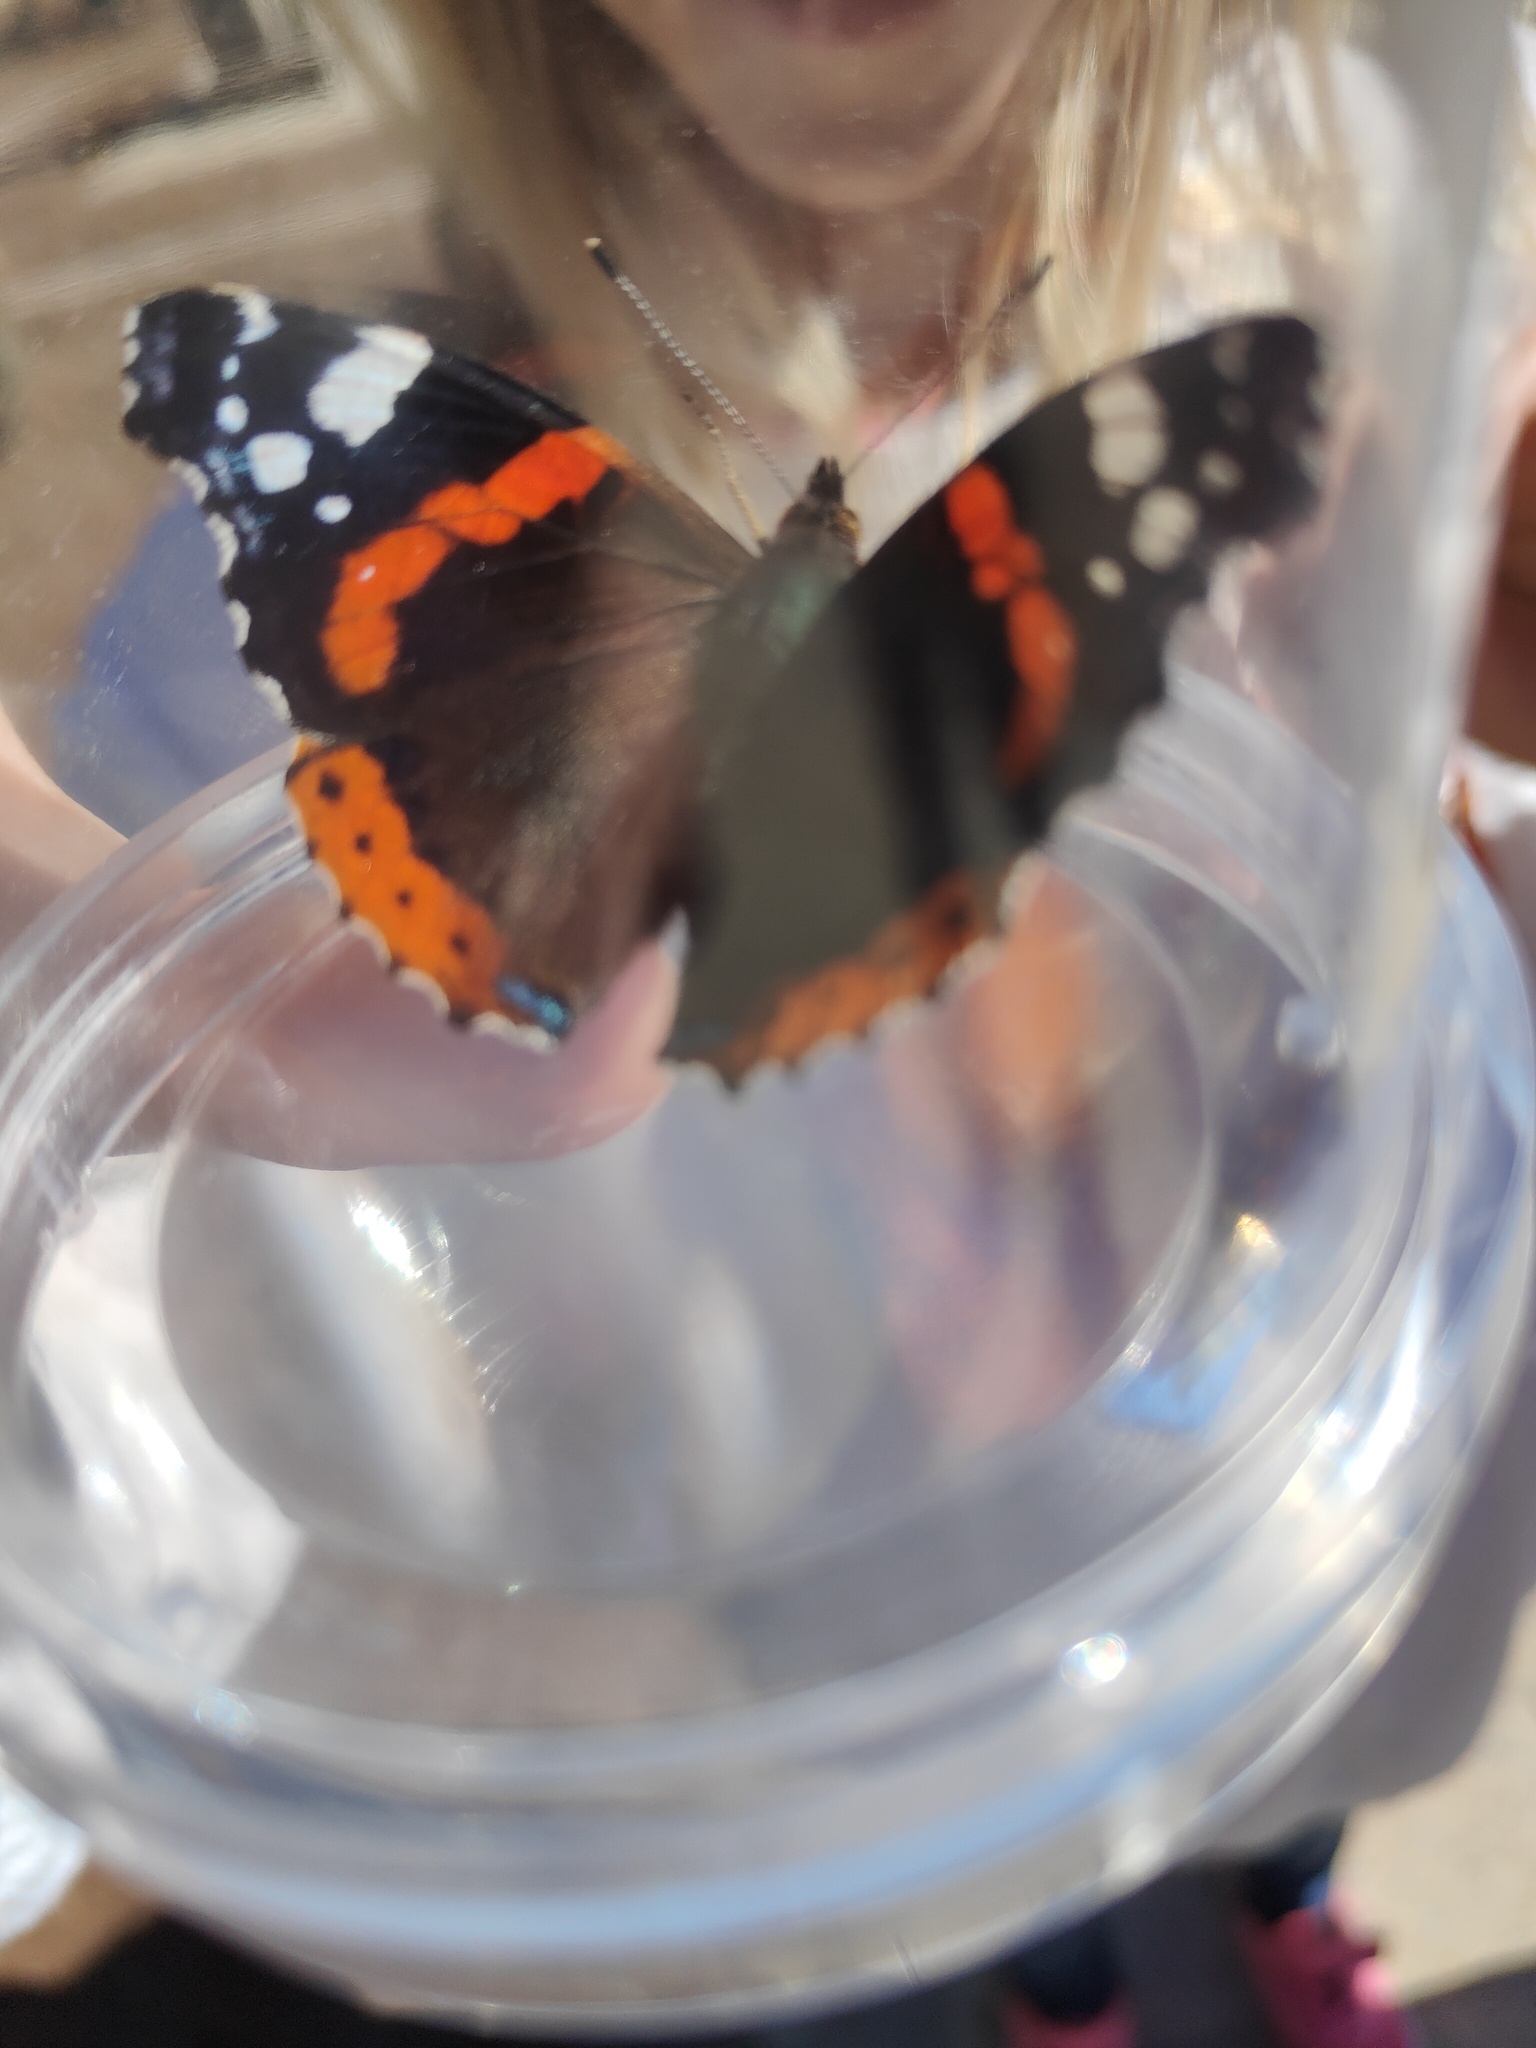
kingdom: Animalia
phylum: Arthropoda
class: Insecta
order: Lepidoptera
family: Nymphalidae
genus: Vanessa
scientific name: Vanessa atalanta
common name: Red admiral
